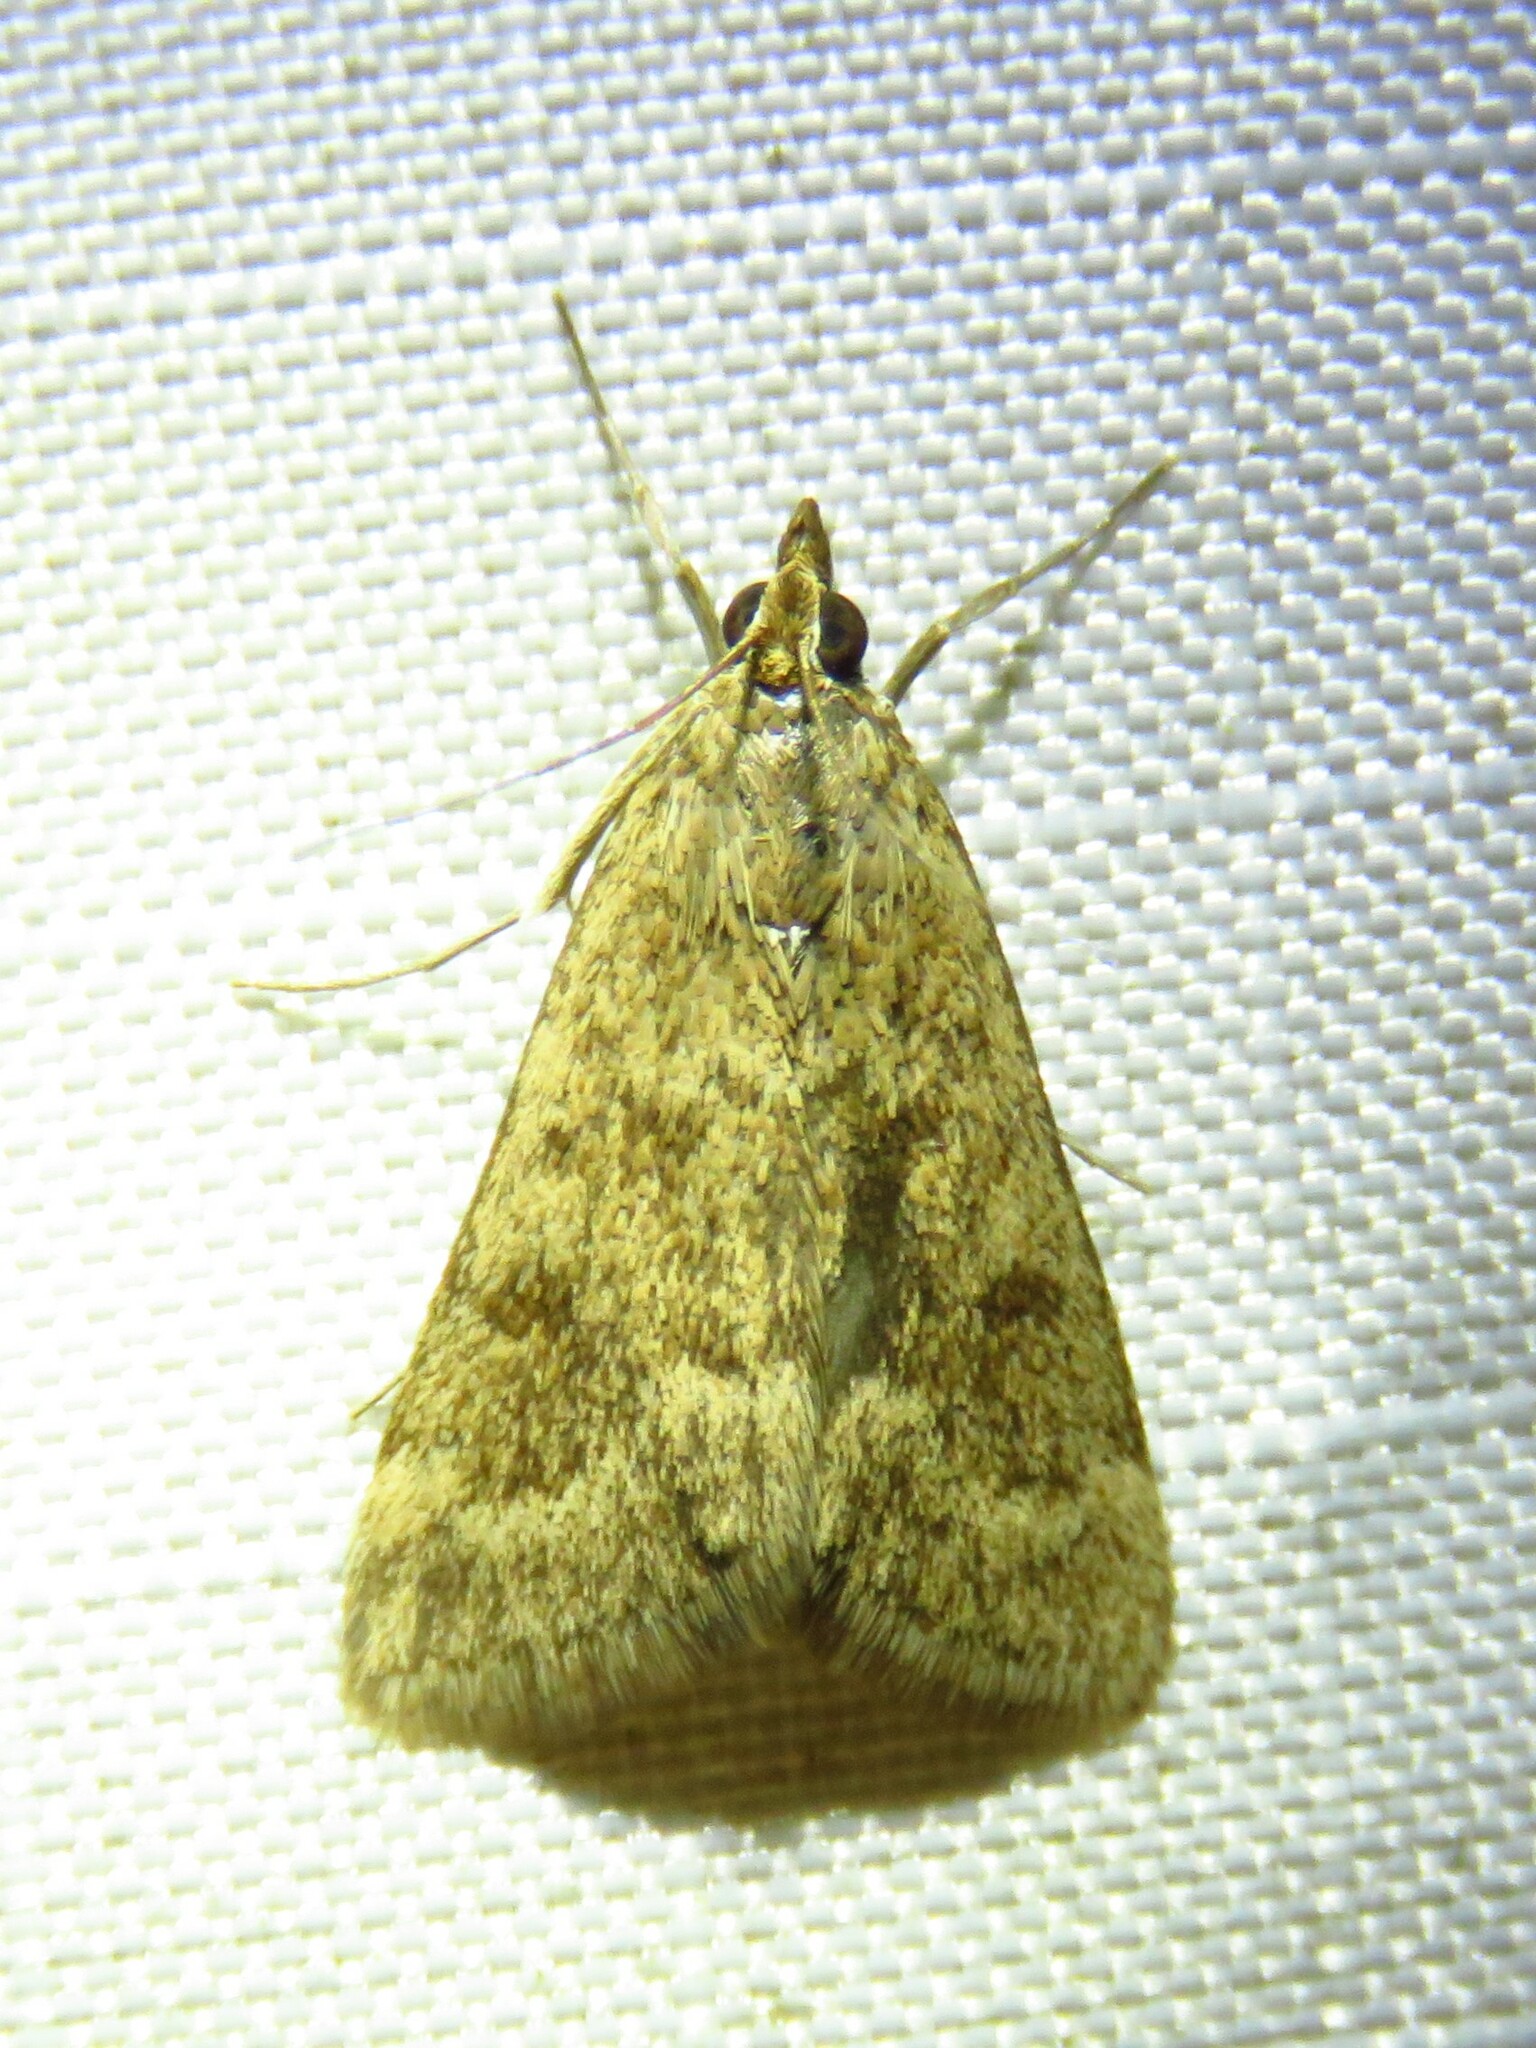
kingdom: Animalia
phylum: Arthropoda
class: Insecta
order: Lepidoptera
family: Crambidae
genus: Achyra
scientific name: Achyra rantalis
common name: Garden webworm
